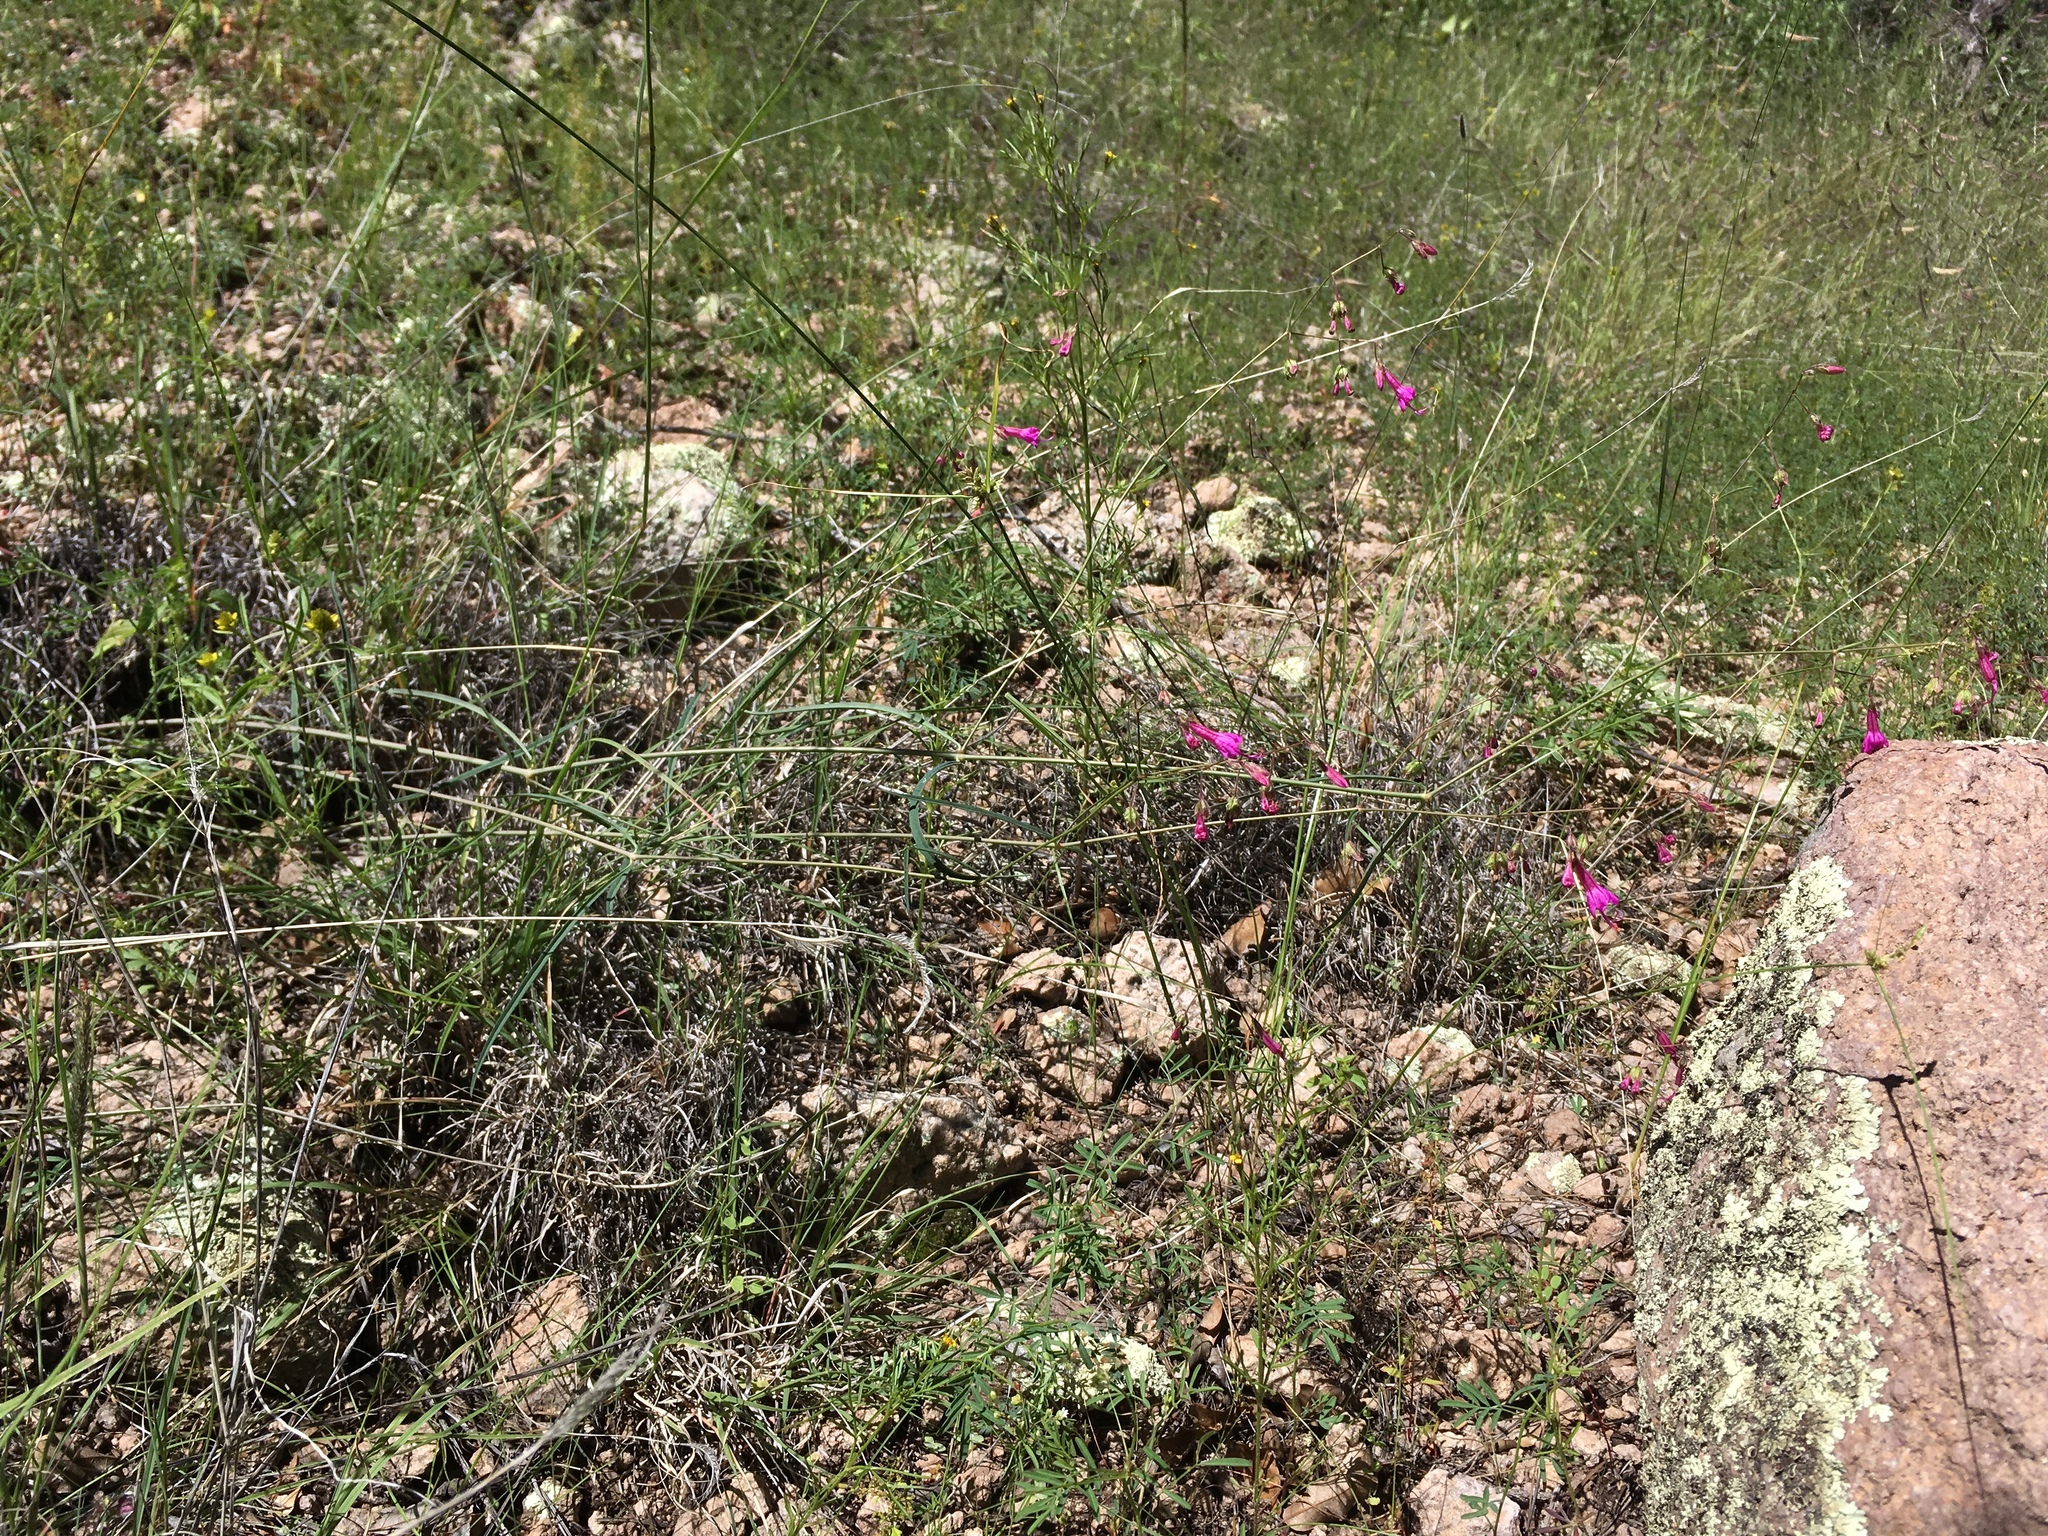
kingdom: Plantae
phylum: Tracheophyta
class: Magnoliopsida
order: Caryophyllales
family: Nyctaginaceae
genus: Mirabilis
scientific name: Mirabilis coccinea
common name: Scarlet four-o'clock
